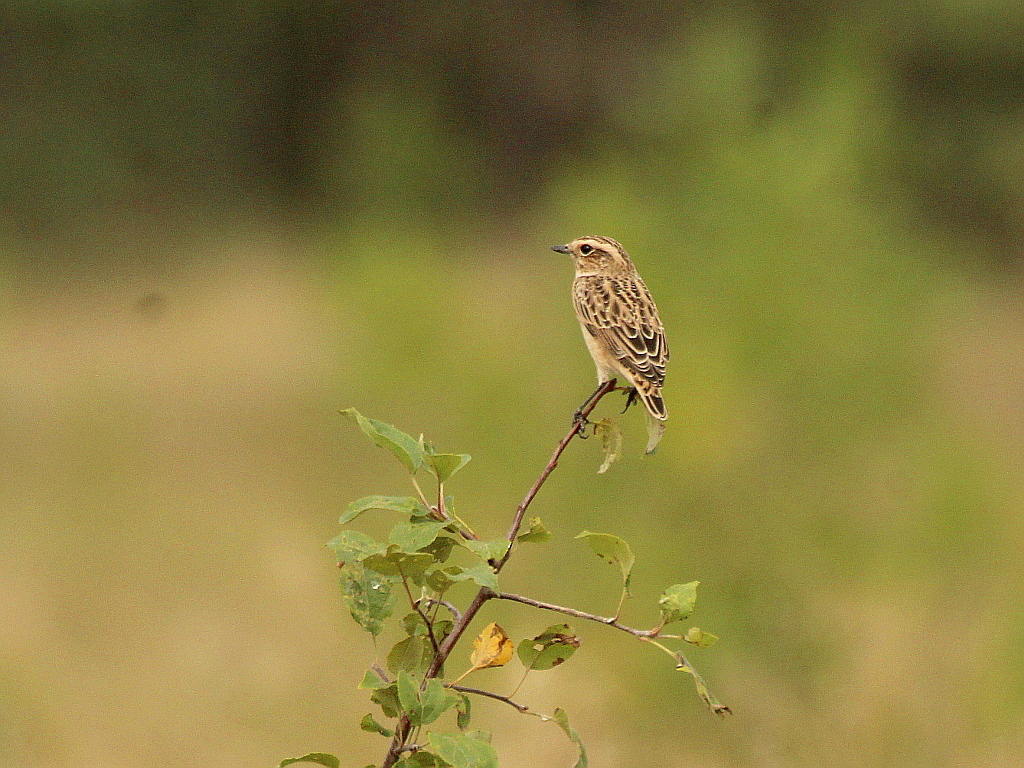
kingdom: Animalia
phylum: Chordata
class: Aves
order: Passeriformes
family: Muscicapidae
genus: Saxicola
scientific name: Saxicola rubetra
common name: Whinchat
